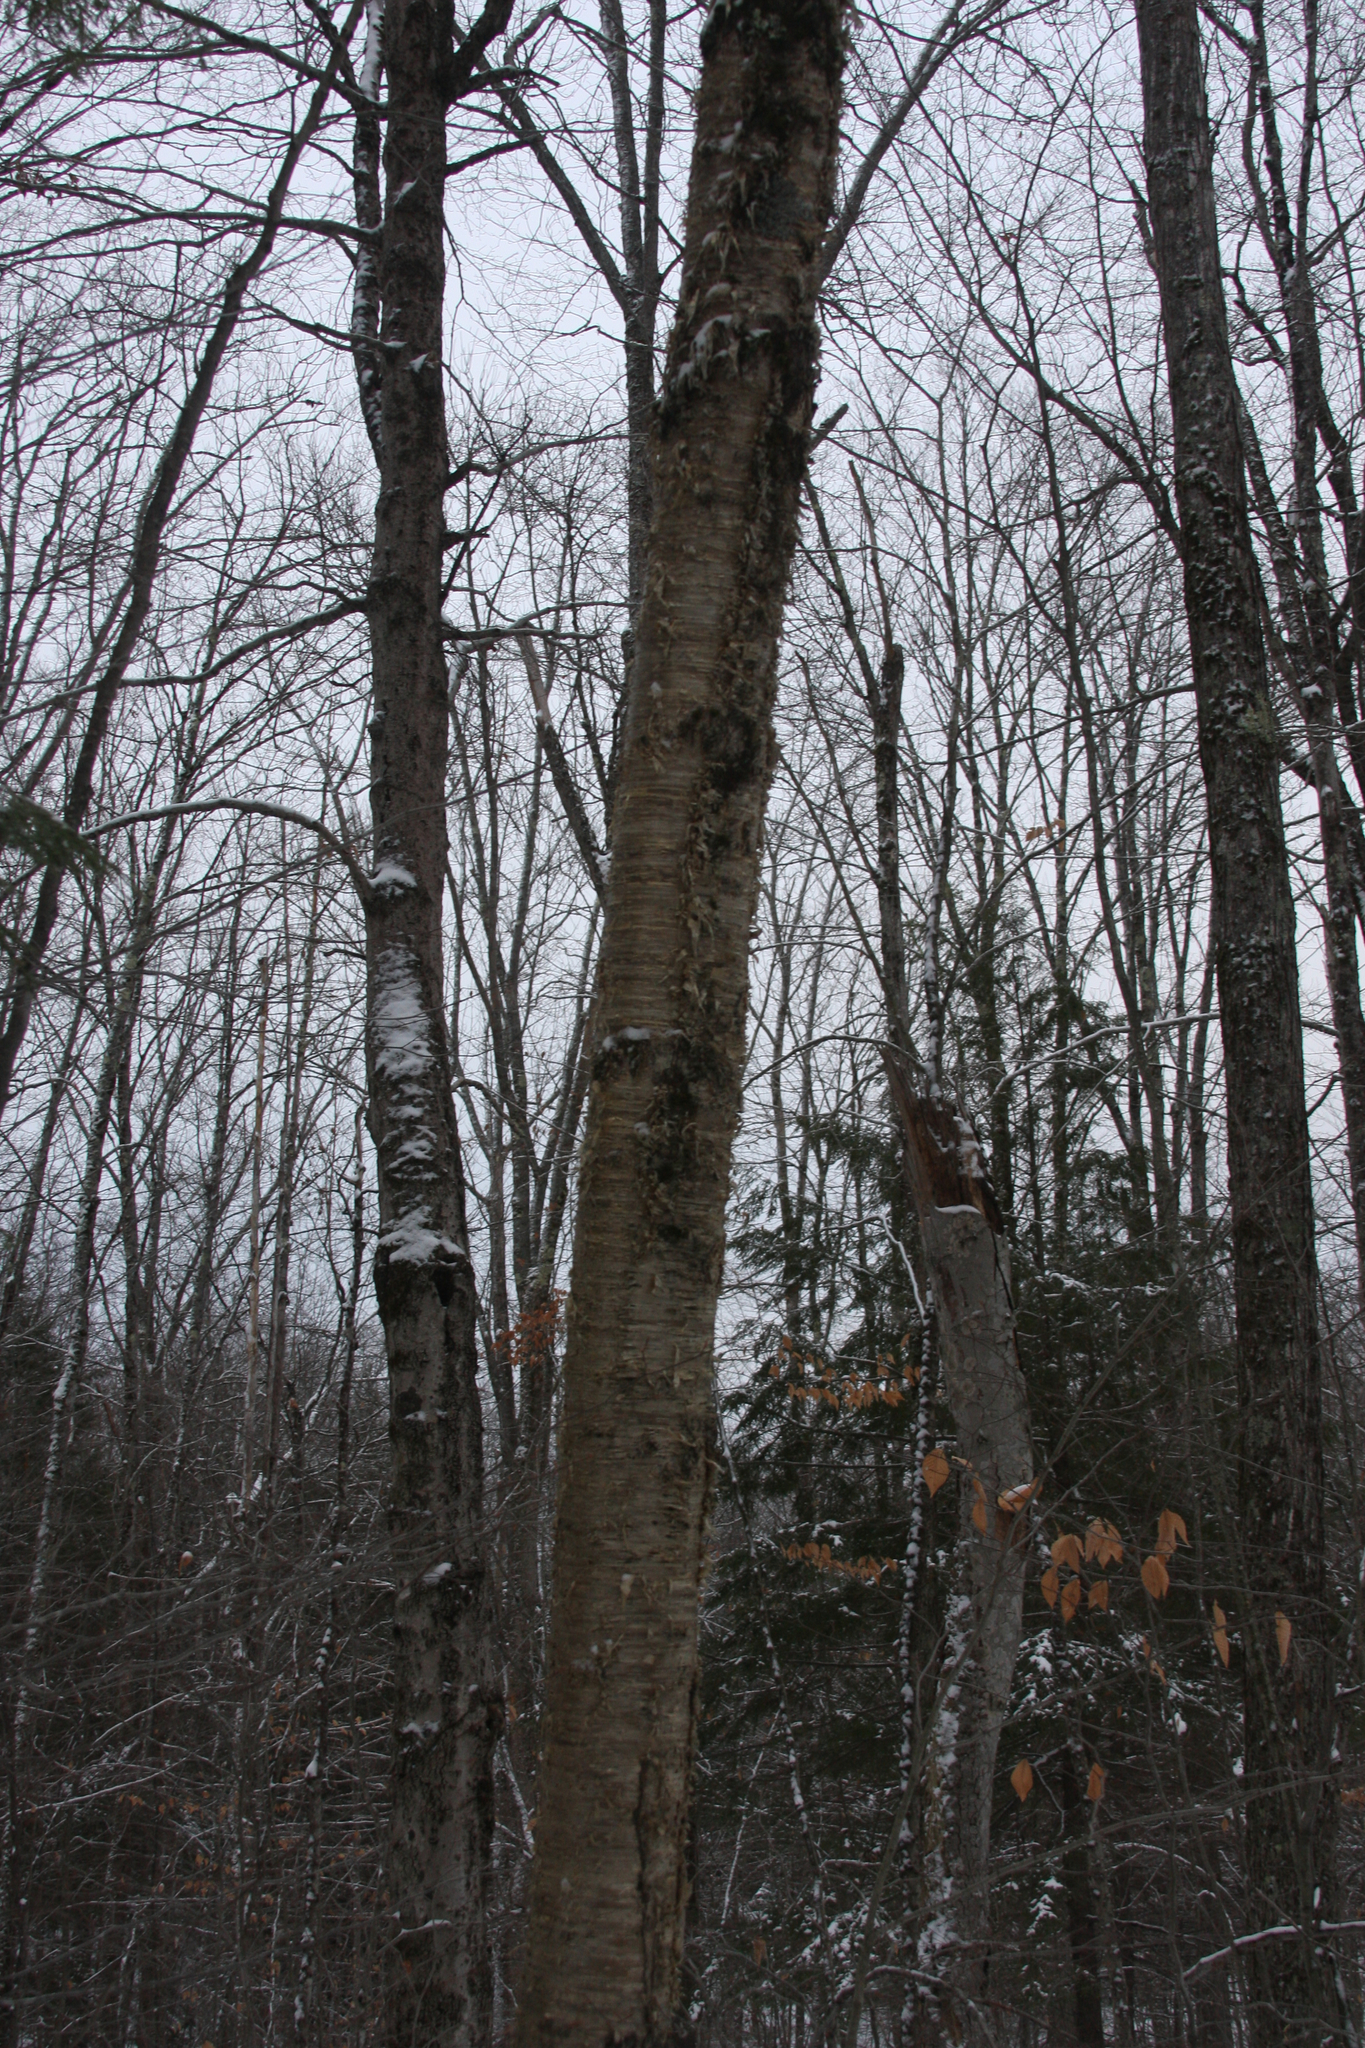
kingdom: Plantae
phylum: Tracheophyta
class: Magnoliopsida
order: Fagales
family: Betulaceae
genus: Betula
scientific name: Betula alleghaniensis
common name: Yellow birch
